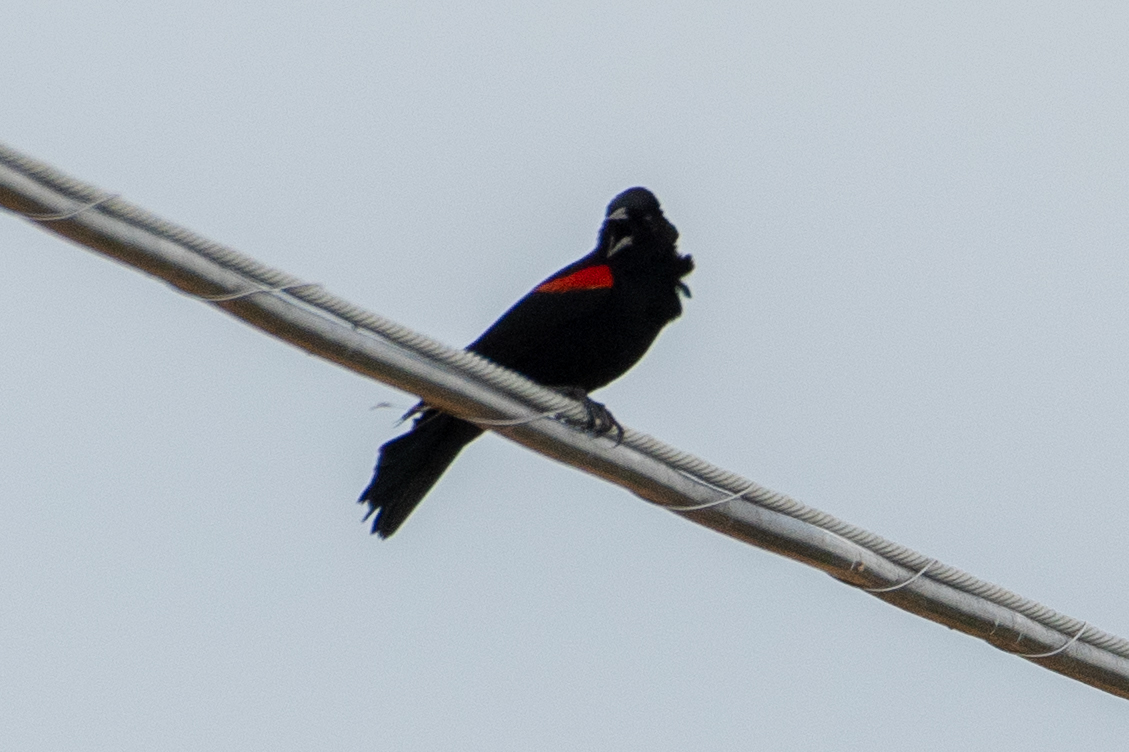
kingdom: Animalia
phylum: Chordata
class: Aves
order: Passeriformes
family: Icteridae
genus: Agelaius
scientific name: Agelaius phoeniceus
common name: Red-winged blackbird
